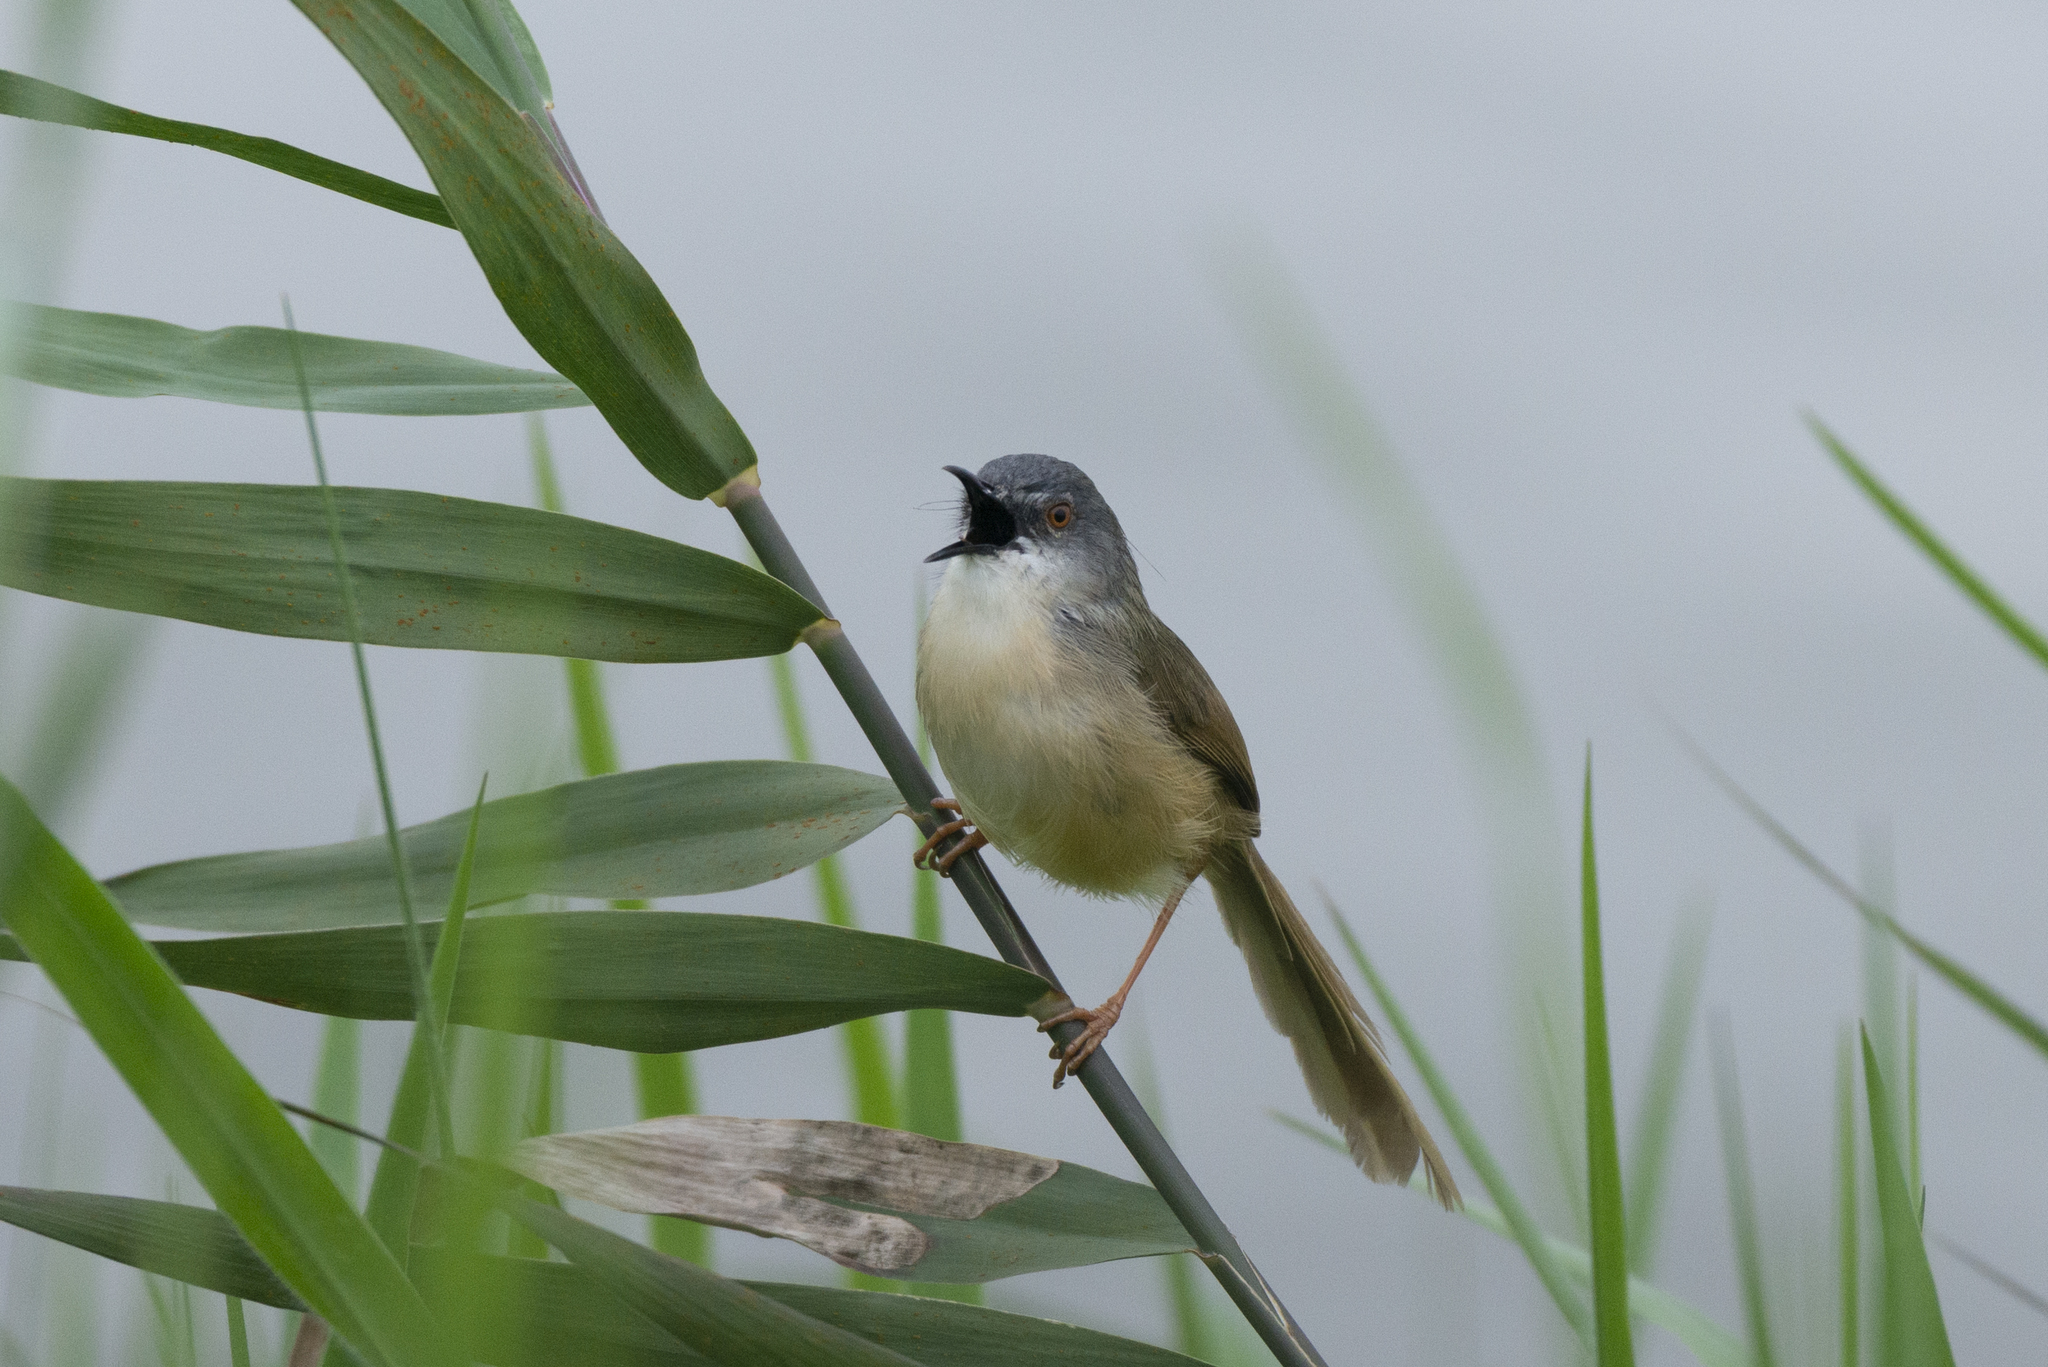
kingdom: Animalia
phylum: Chordata
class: Aves
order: Passeriformes
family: Cisticolidae
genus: Prinia
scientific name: Prinia flaviventris
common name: Yellow-bellied prinia
